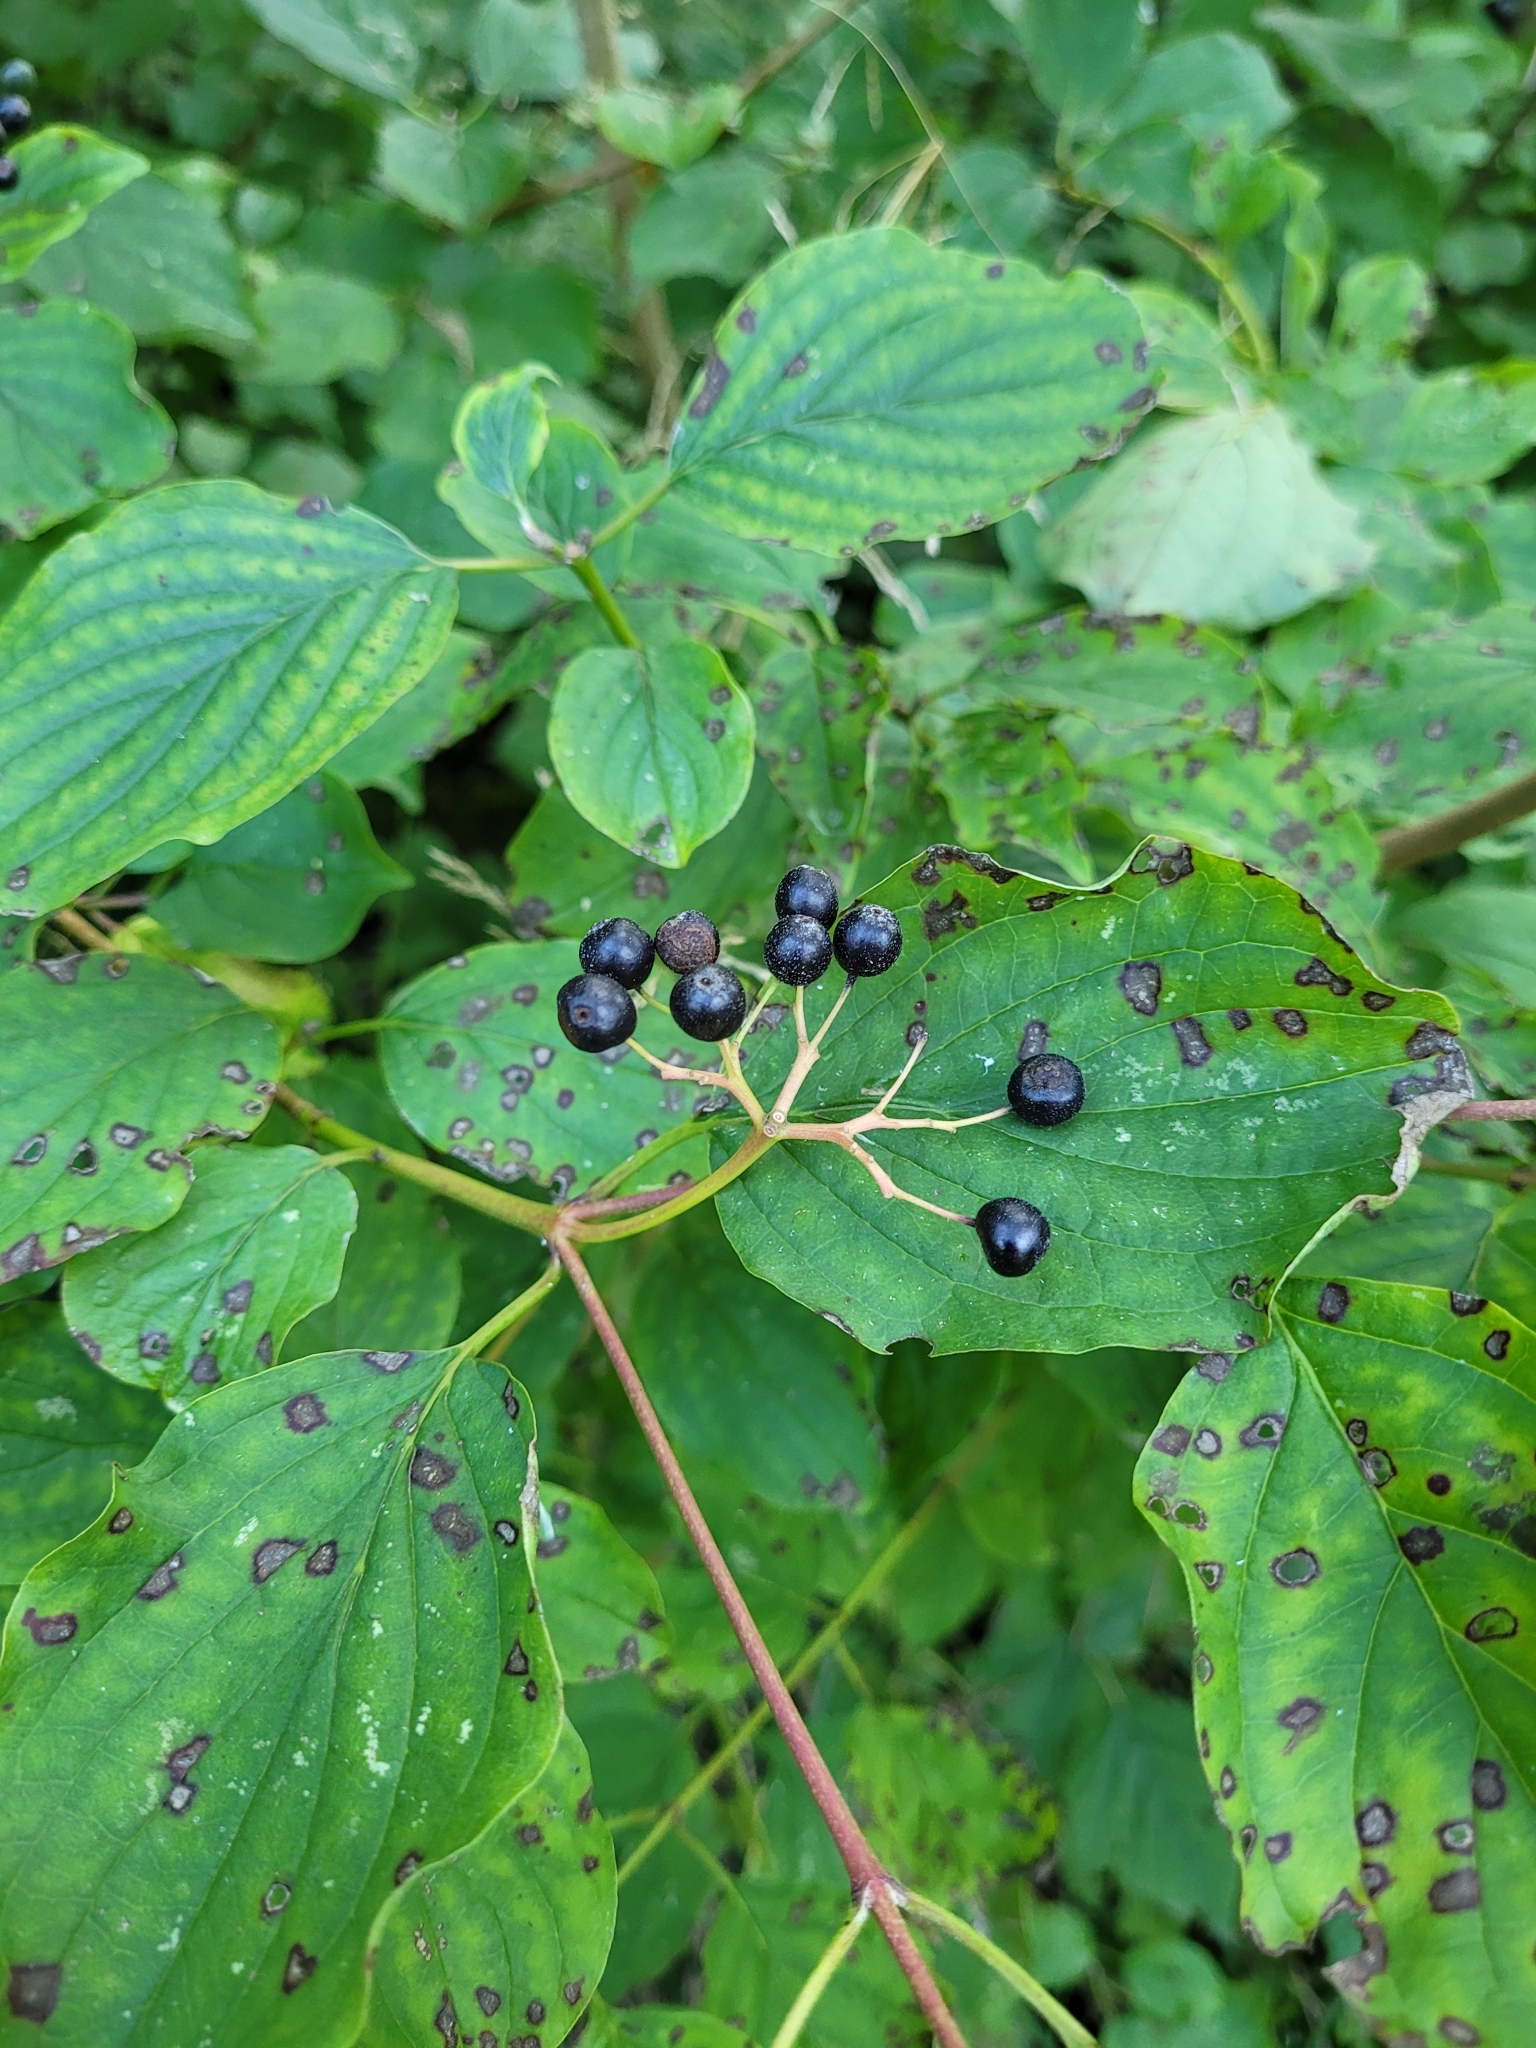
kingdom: Plantae
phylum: Tracheophyta
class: Magnoliopsida
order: Cornales
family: Cornaceae
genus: Cornus
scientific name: Cornus sanguinea
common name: Dogwood
